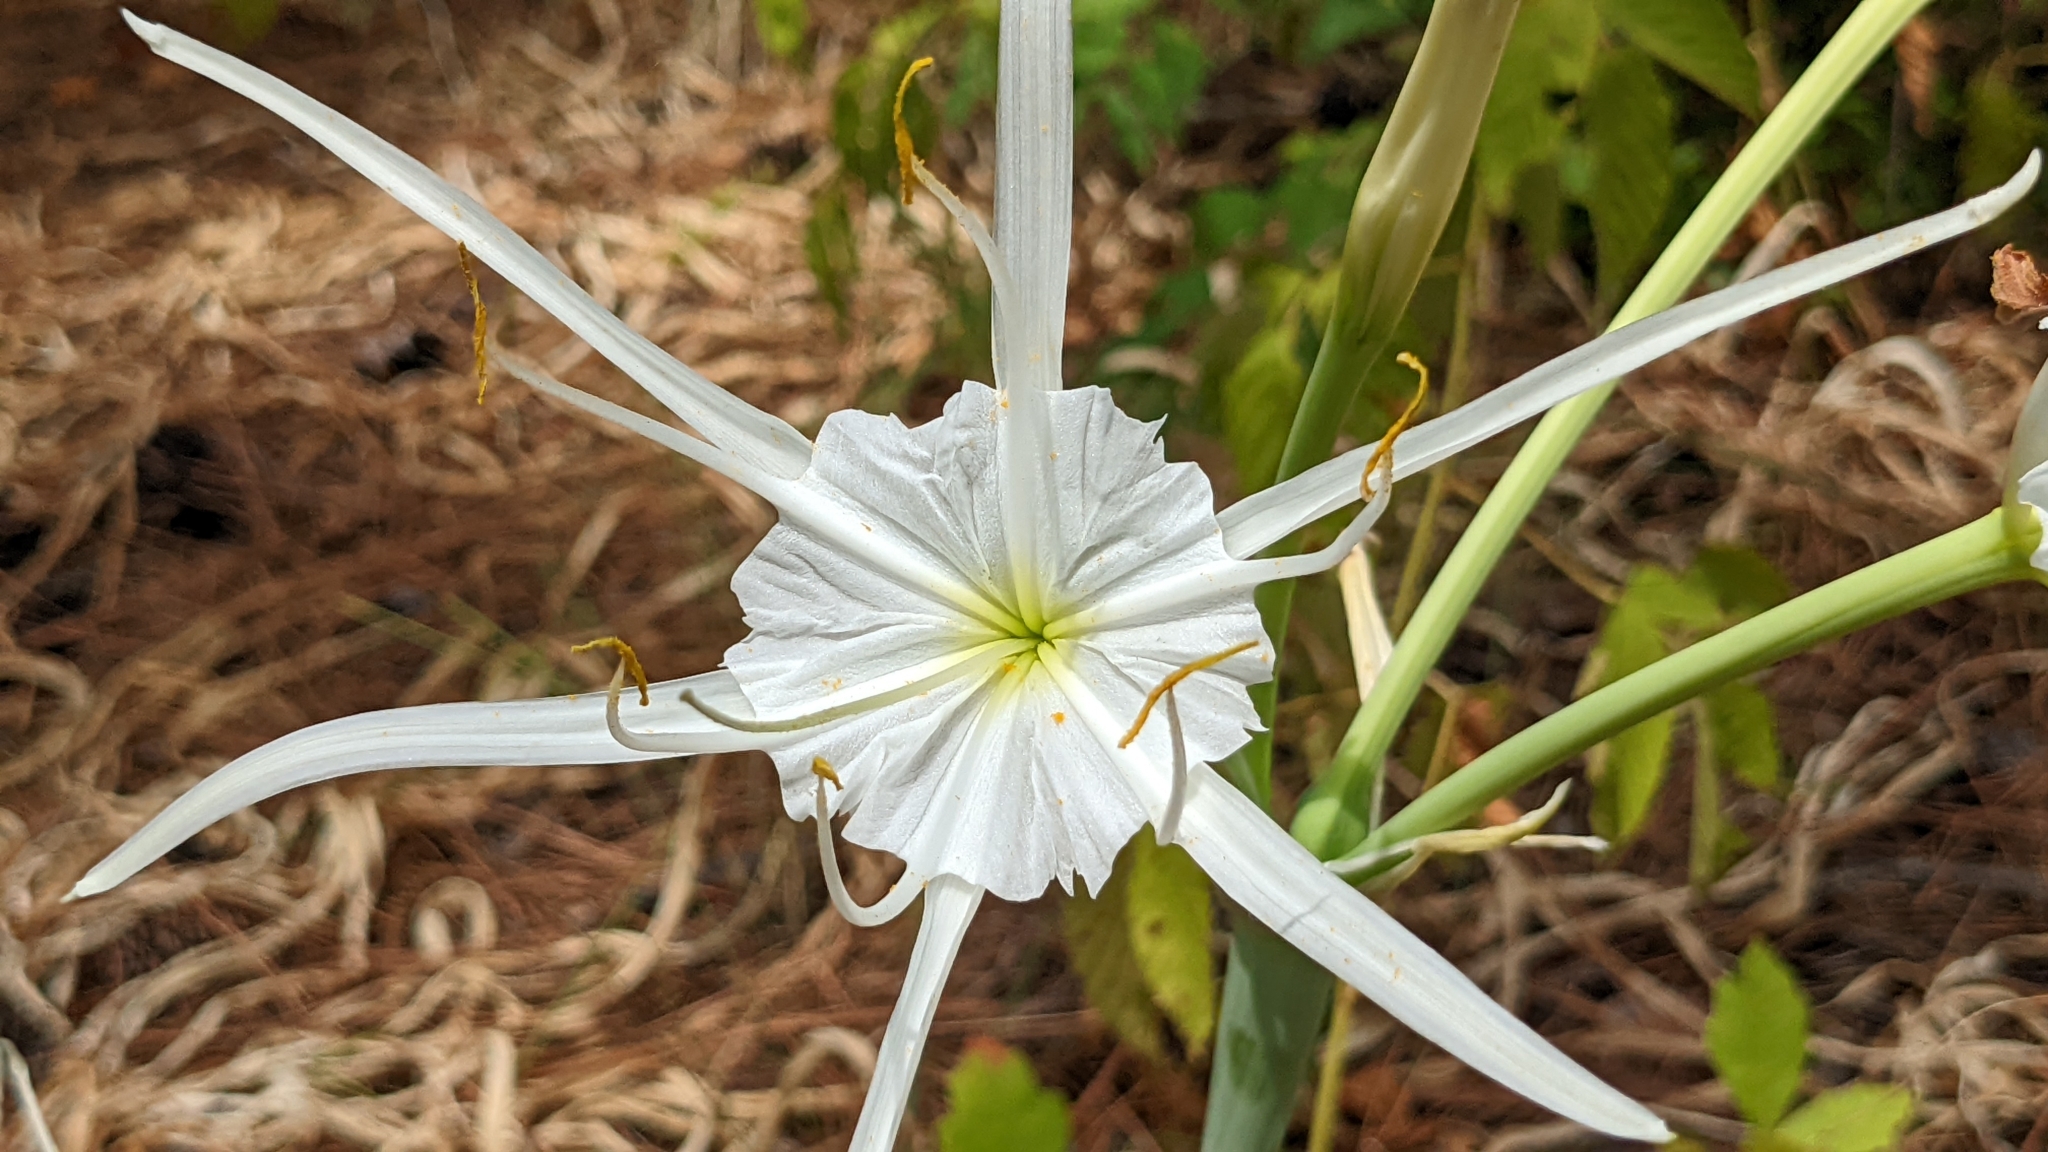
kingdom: Plantae
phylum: Tracheophyta
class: Liliopsida
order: Asparagales
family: Amaryllidaceae
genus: Hymenocallis
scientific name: Hymenocallis occidentalis
